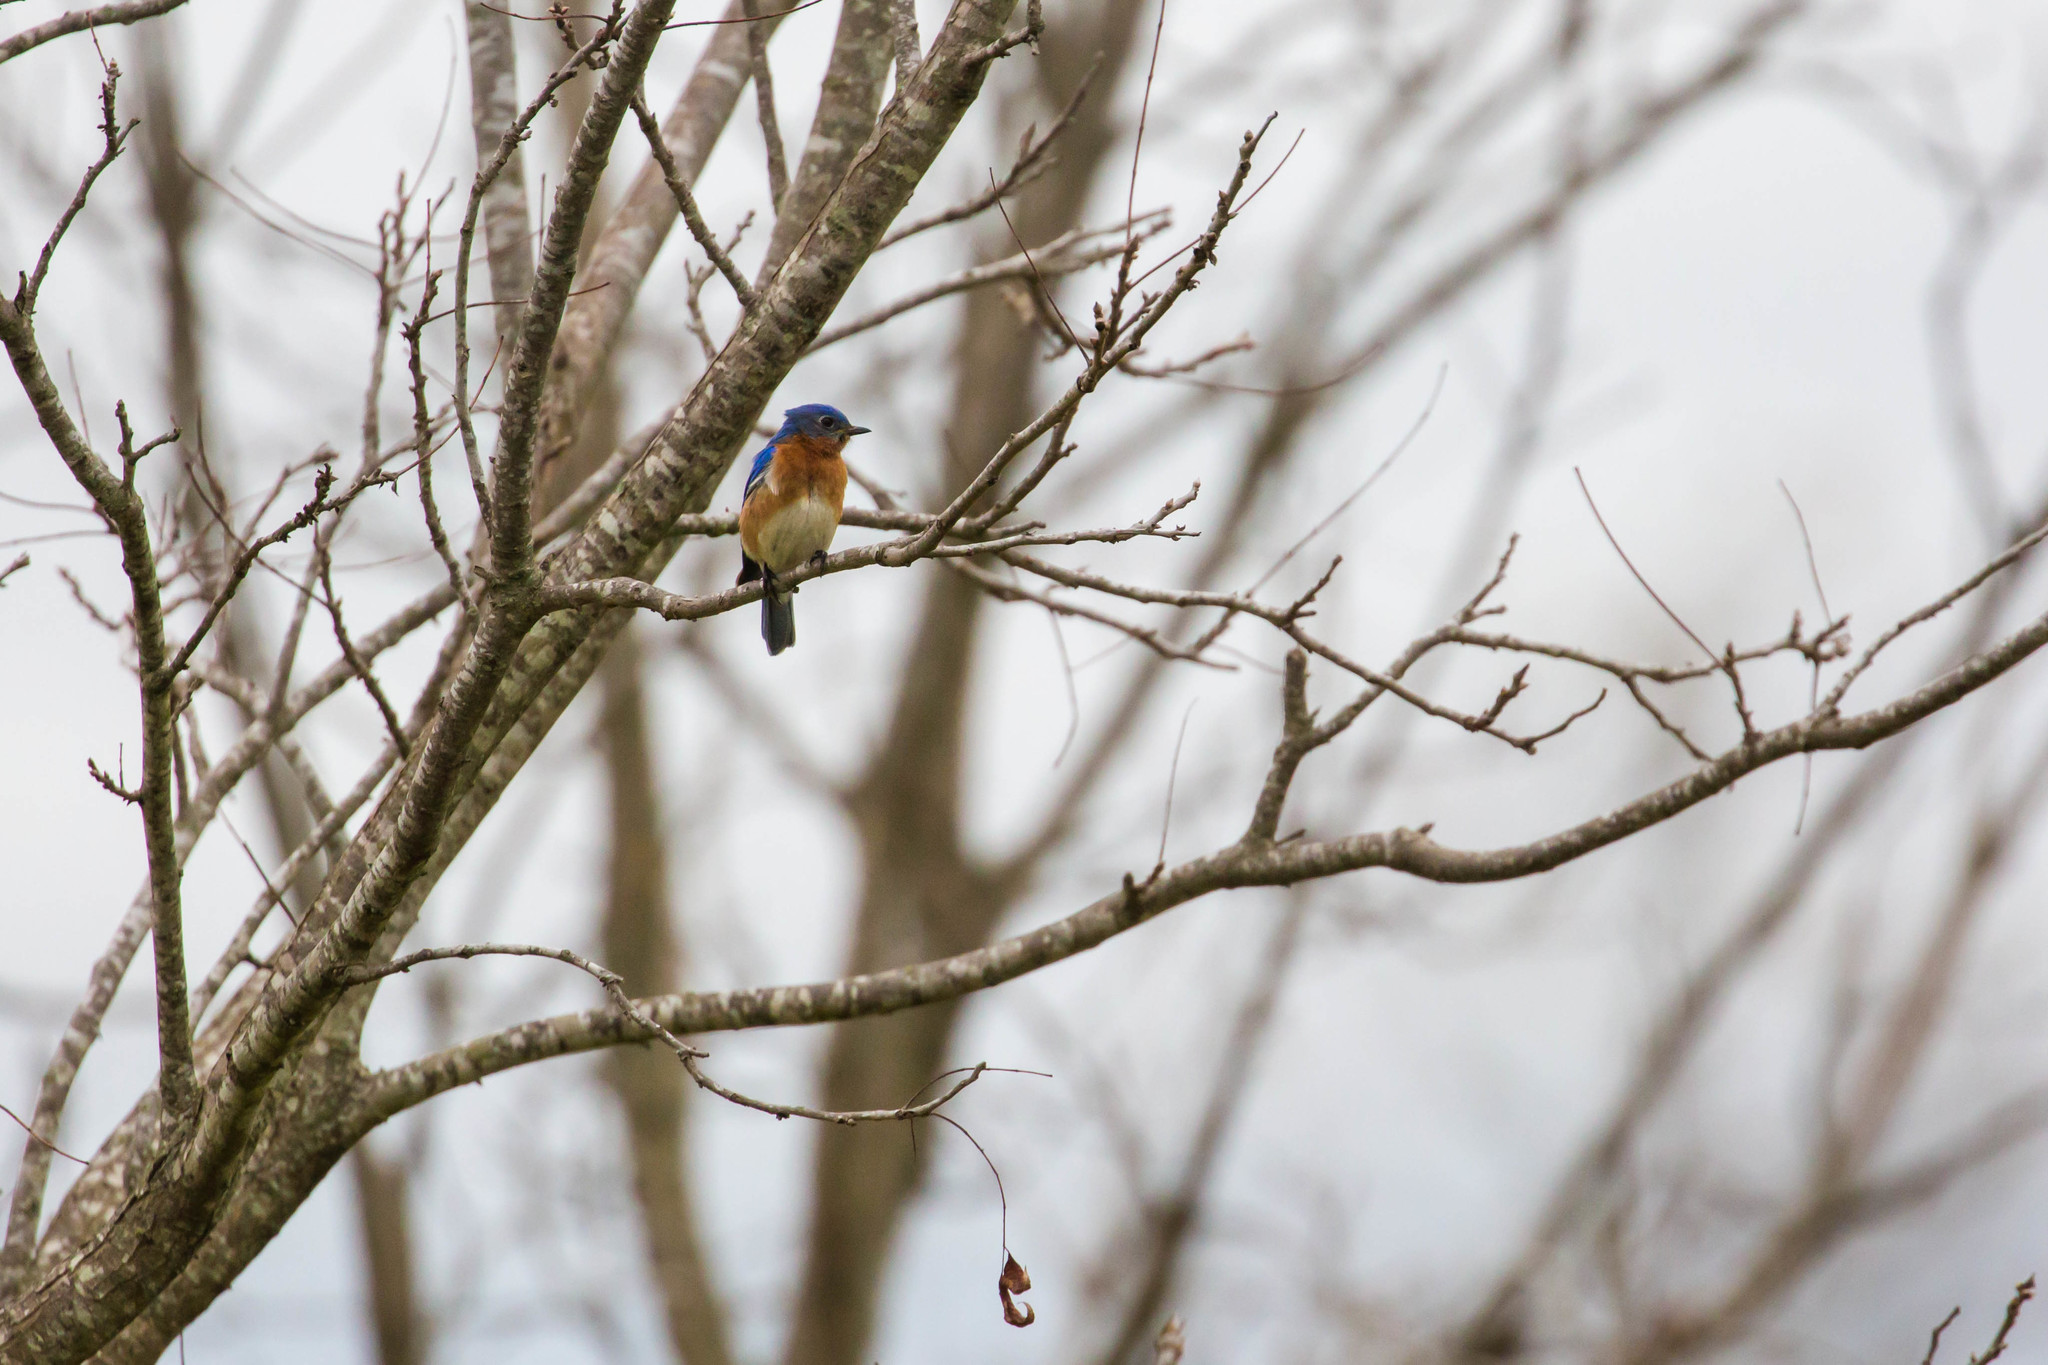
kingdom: Animalia
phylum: Chordata
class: Aves
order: Passeriformes
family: Turdidae
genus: Sialia
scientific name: Sialia sialis
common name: Eastern bluebird
